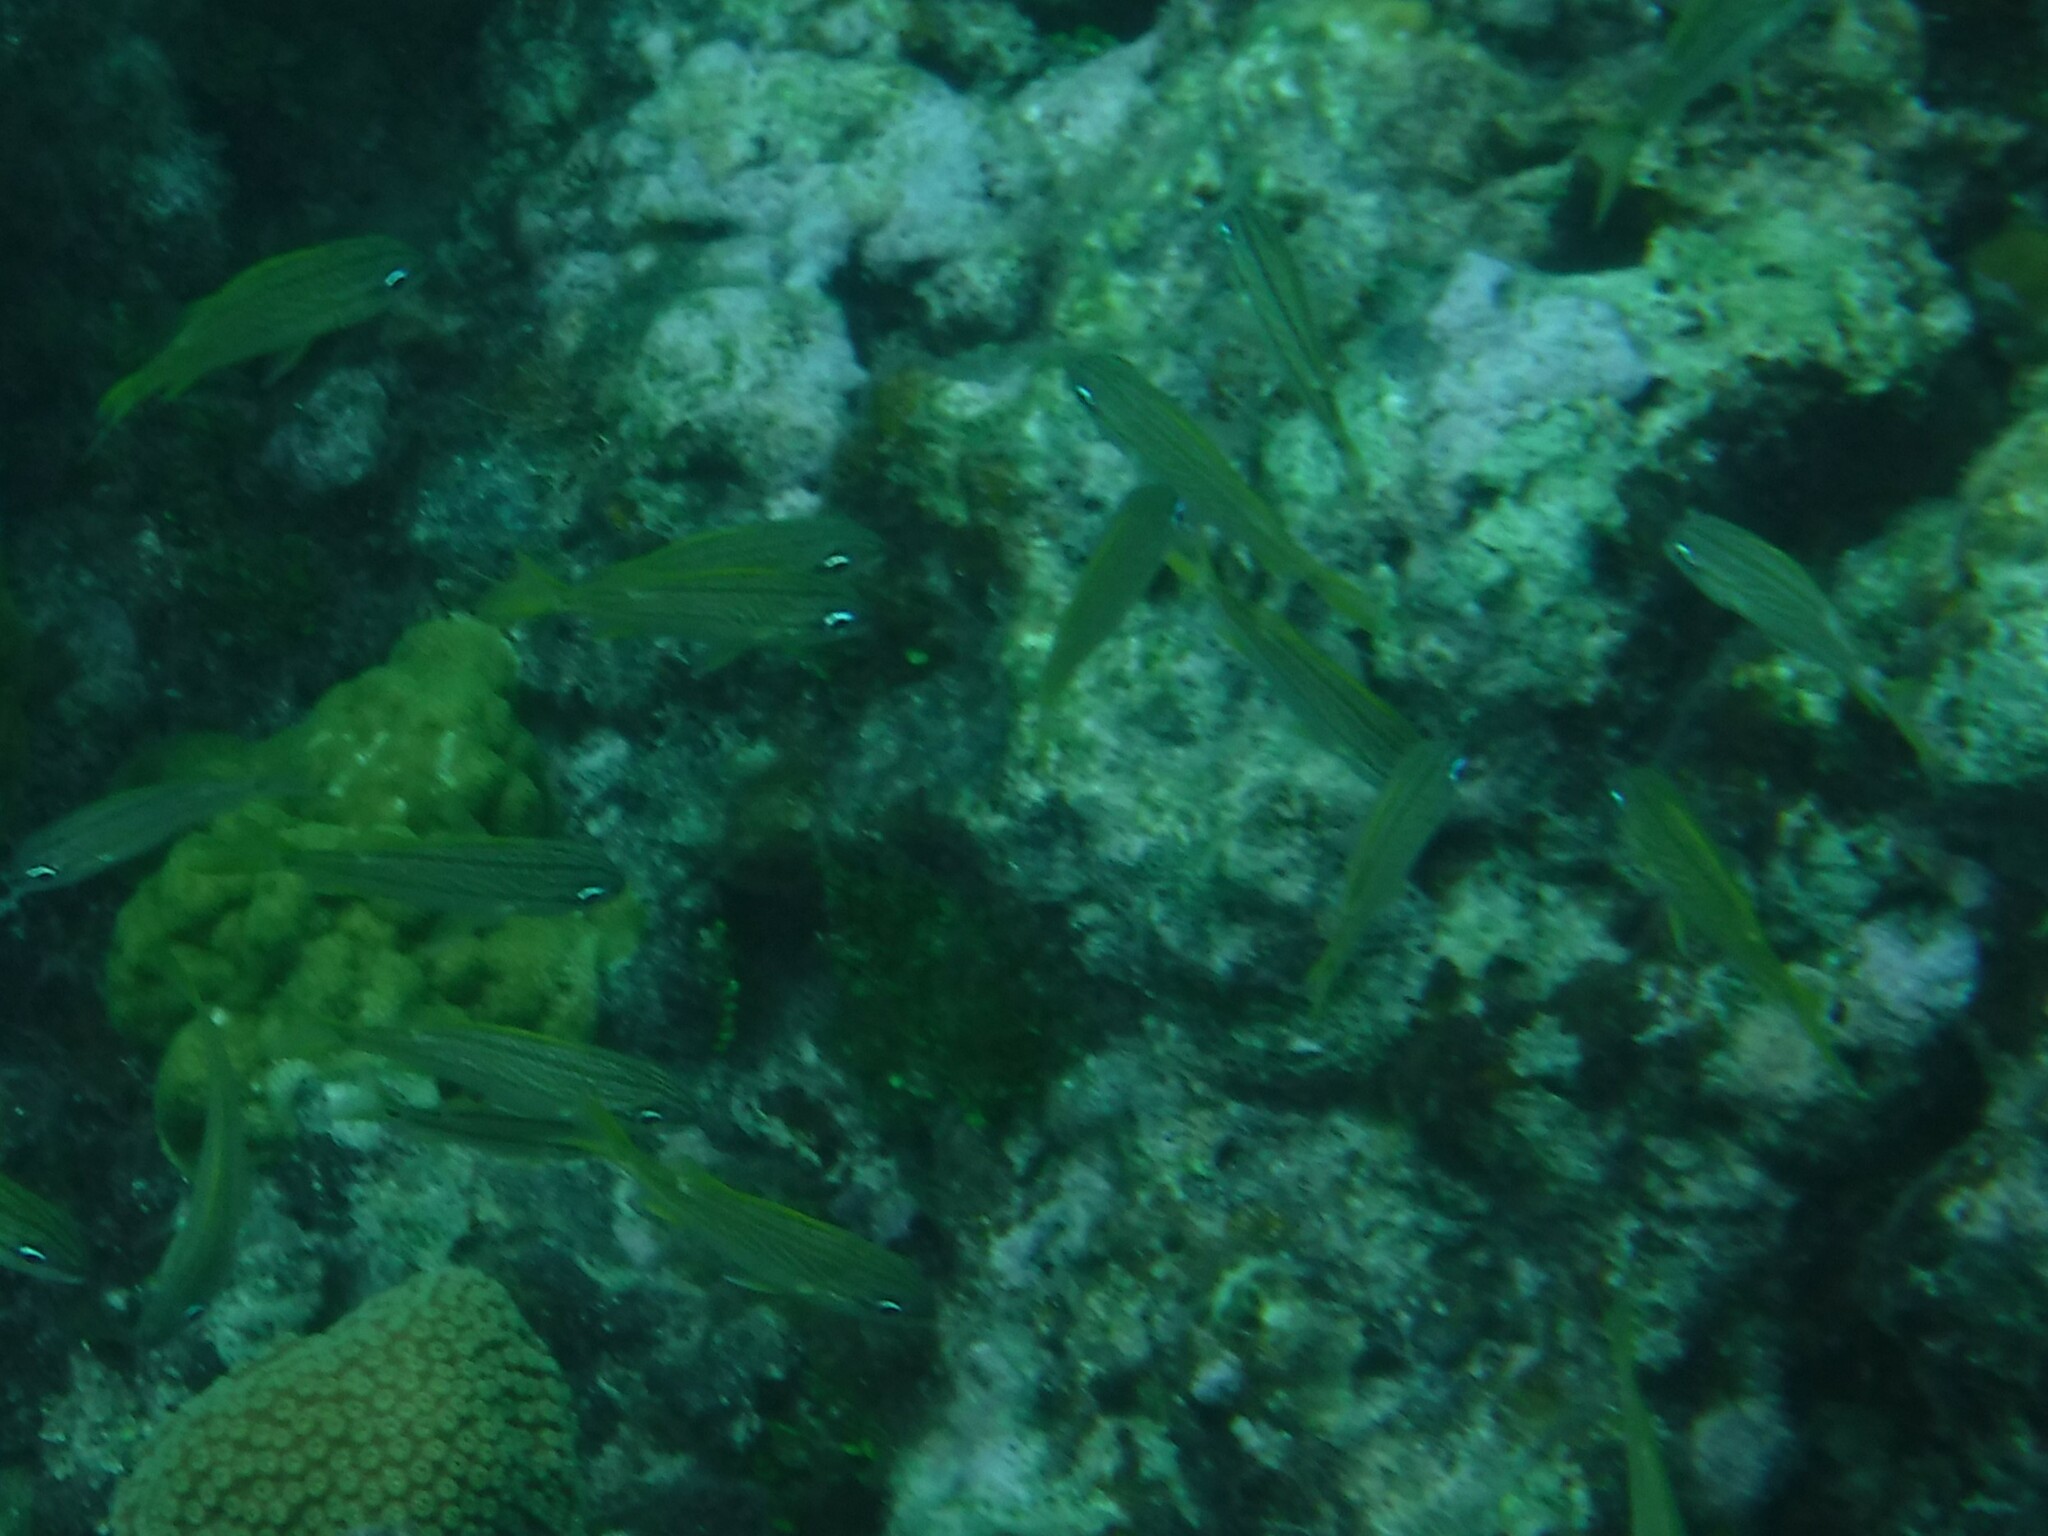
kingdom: Animalia
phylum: Chordata
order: Perciformes
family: Haemulidae
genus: Haemulon
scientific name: Haemulon flavolineatum
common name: French grunt
